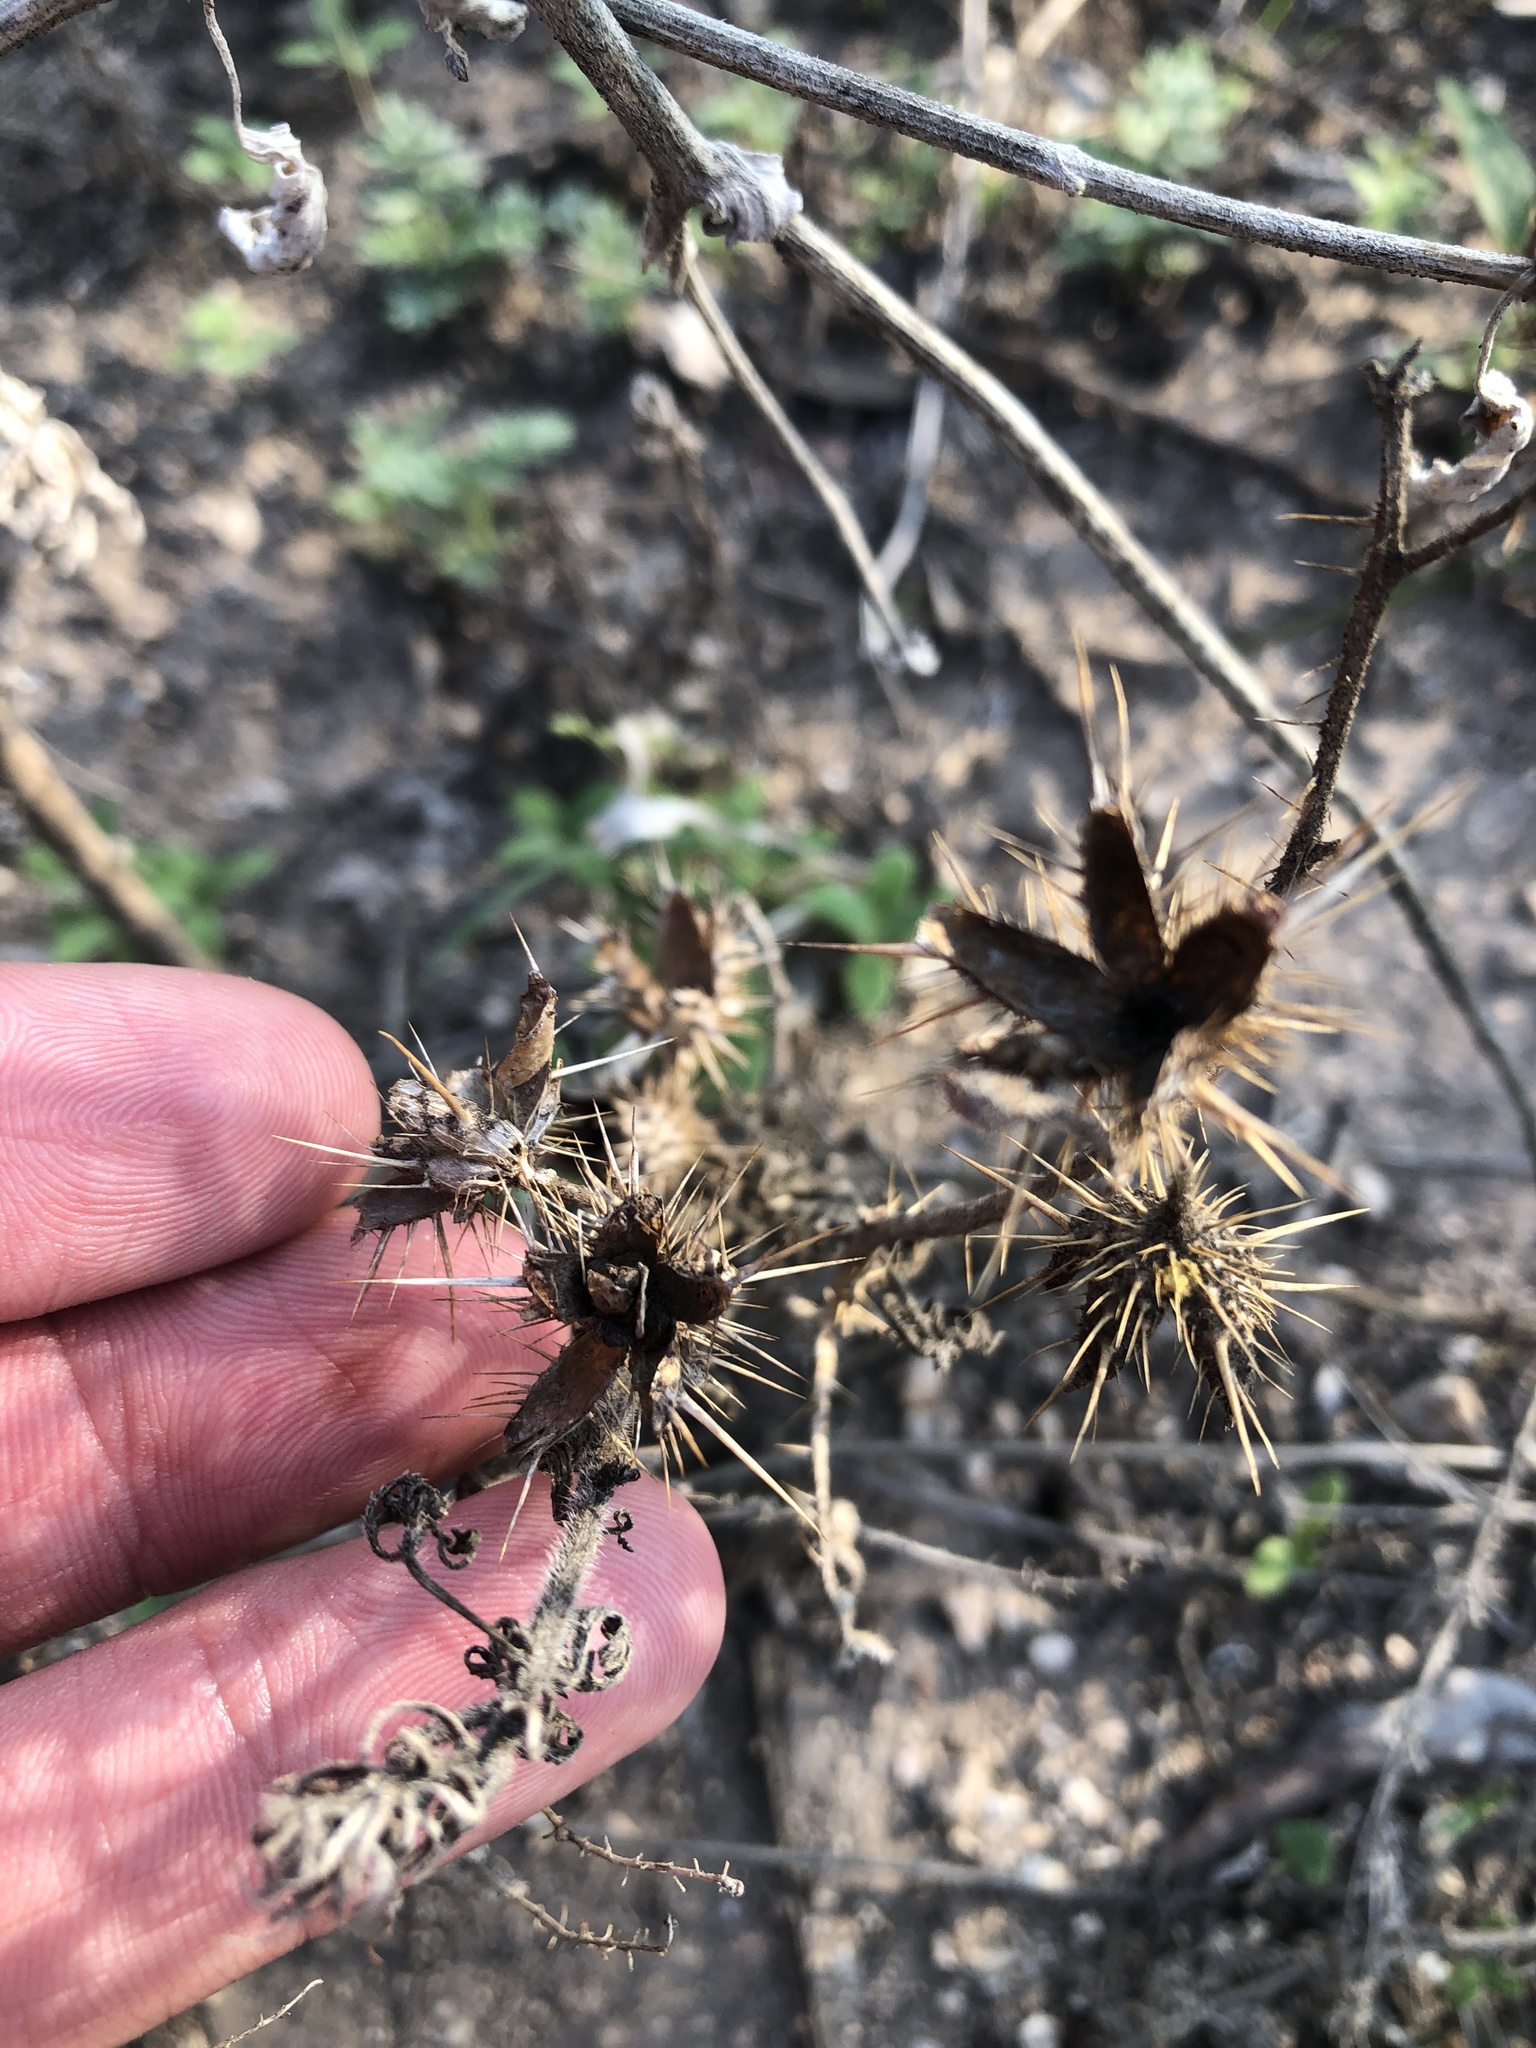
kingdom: Plantae
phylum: Tracheophyta
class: Magnoliopsida
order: Solanales
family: Solanaceae
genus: Solanum
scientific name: Solanum angustifolium
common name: Buffalobur nightshade
